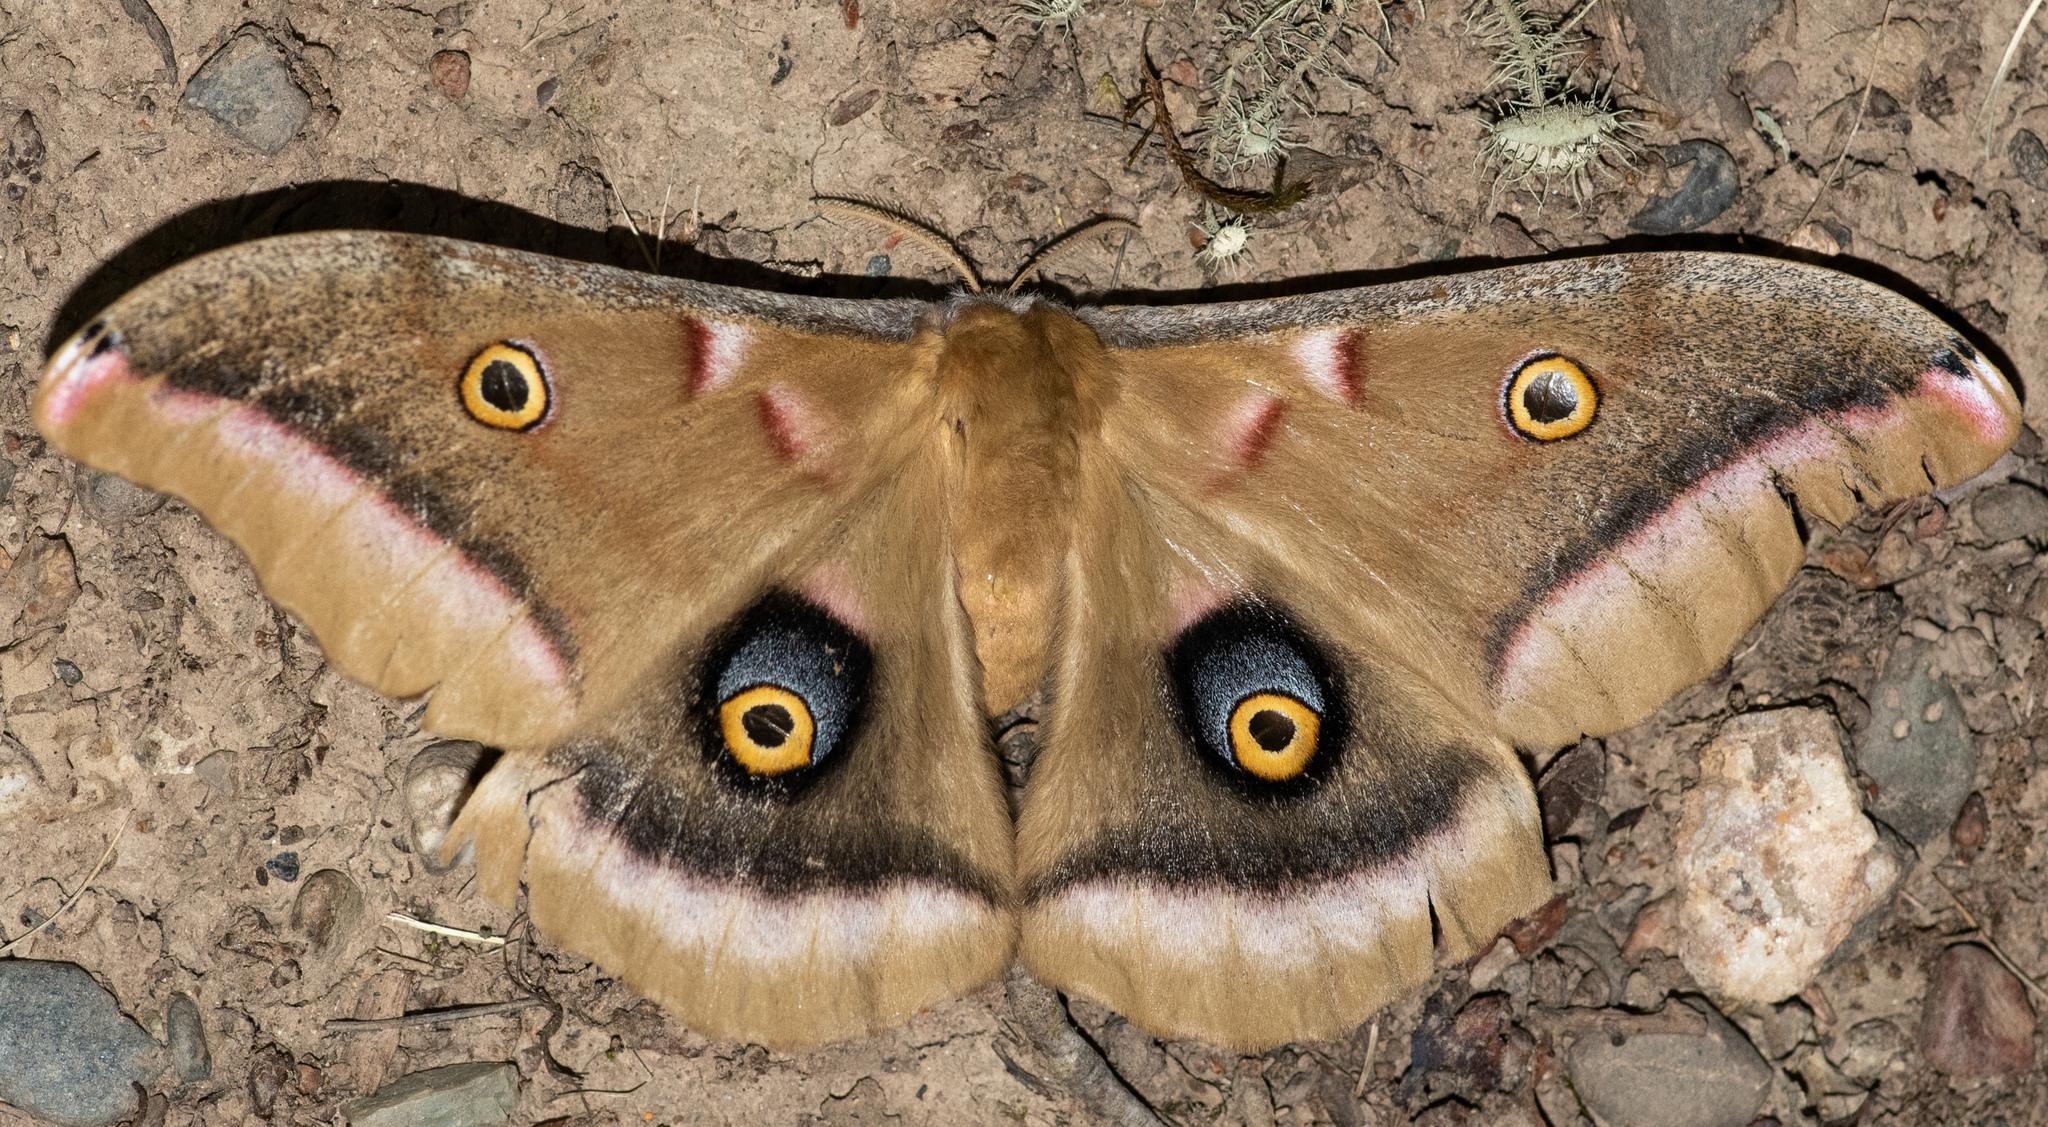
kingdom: Animalia
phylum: Arthropoda
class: Insecta
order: Lepidoptera
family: Saturniidae
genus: Antheraea
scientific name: Antheraea polyphemus
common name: Polyphemus moth
